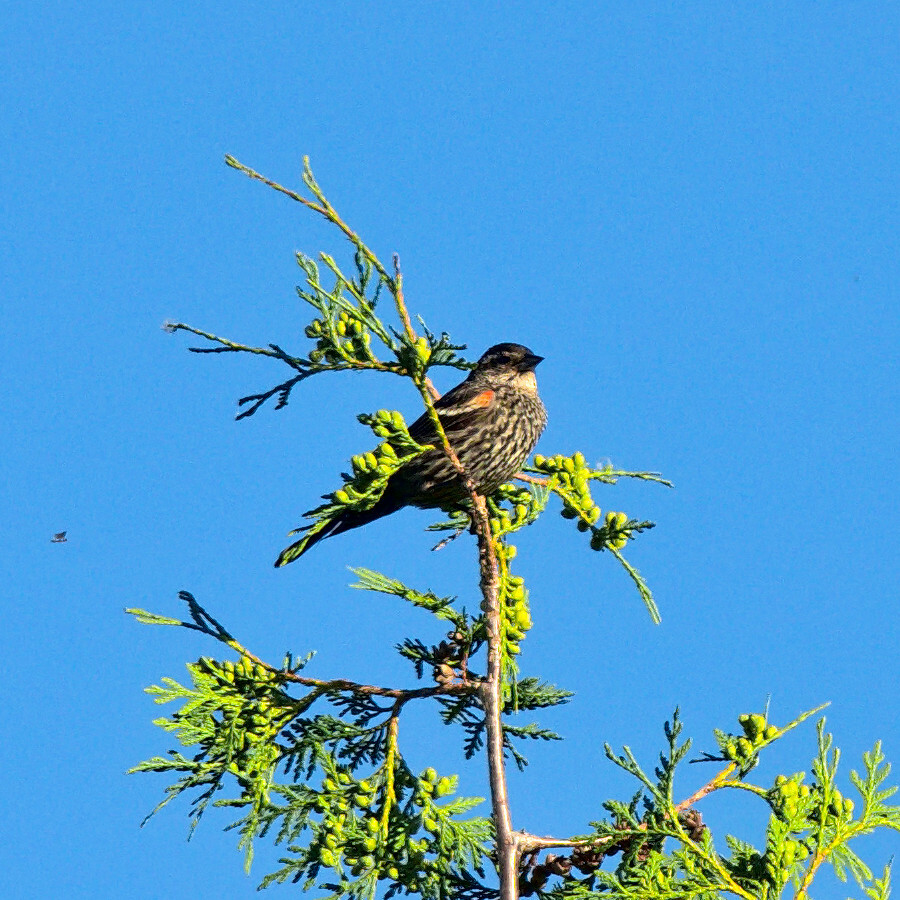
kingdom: Animalia
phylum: Chordata
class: Aves
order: Passeriformes
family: Icteridae
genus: Agelaius
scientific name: Agelaius phoeniceus
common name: Red-winged blackbird
